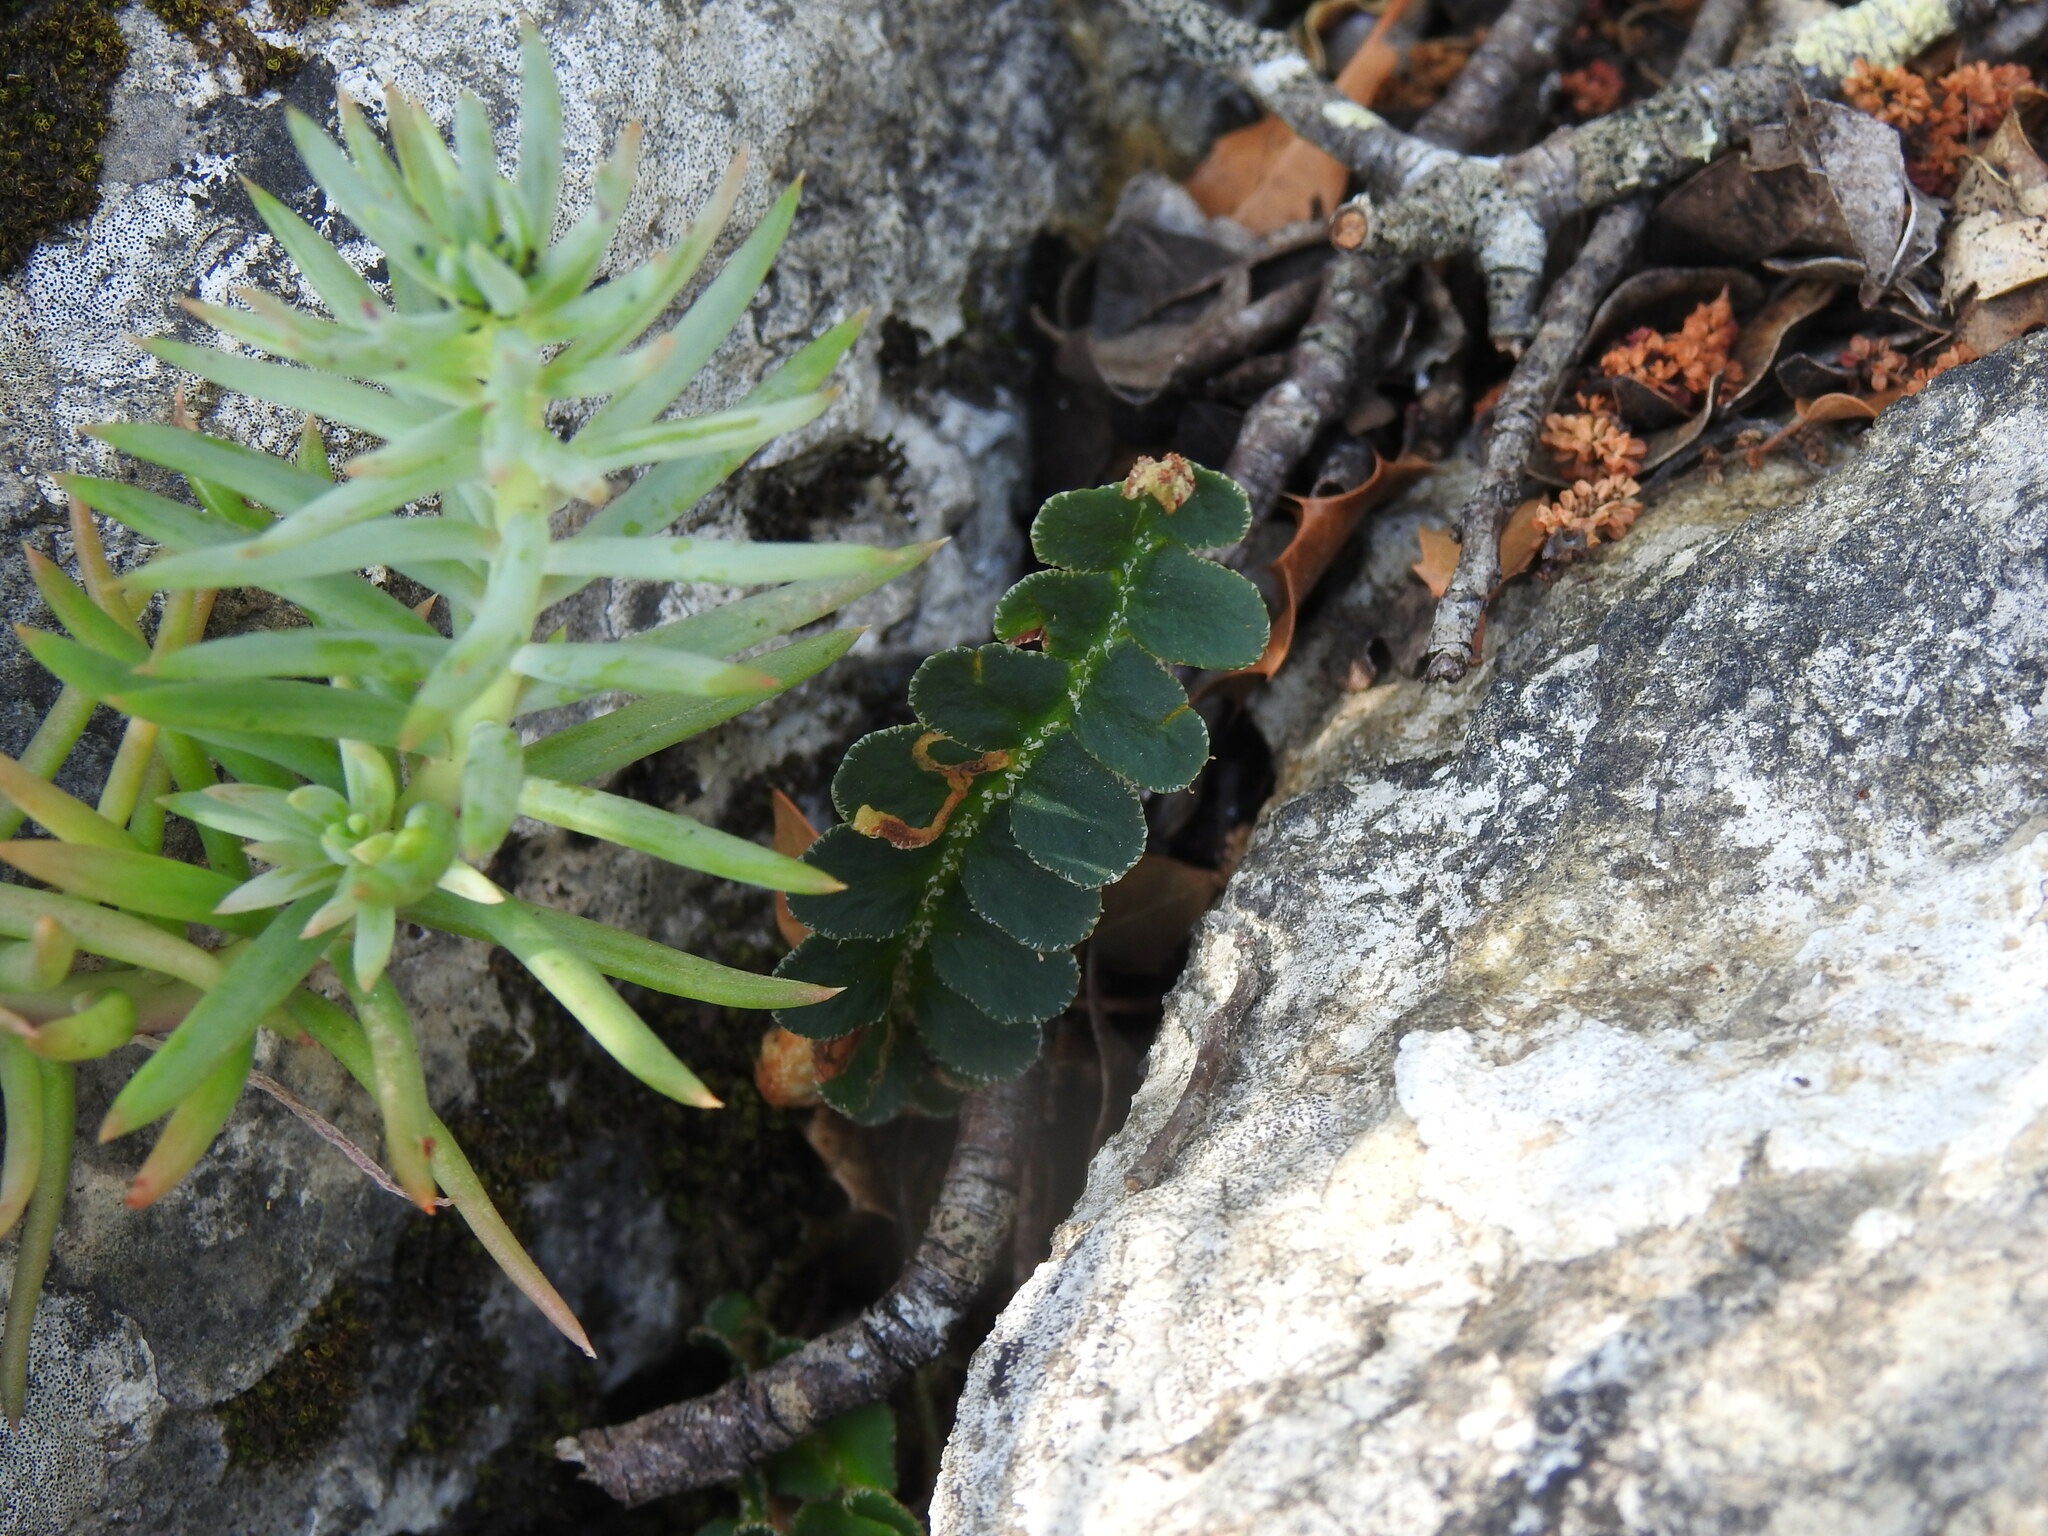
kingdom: Plantae
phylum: Tracheophyta
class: Polypodiopsida
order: Polypodiales
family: Aspleniaceae
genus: Asplenium
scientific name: Asplenium ceterach
